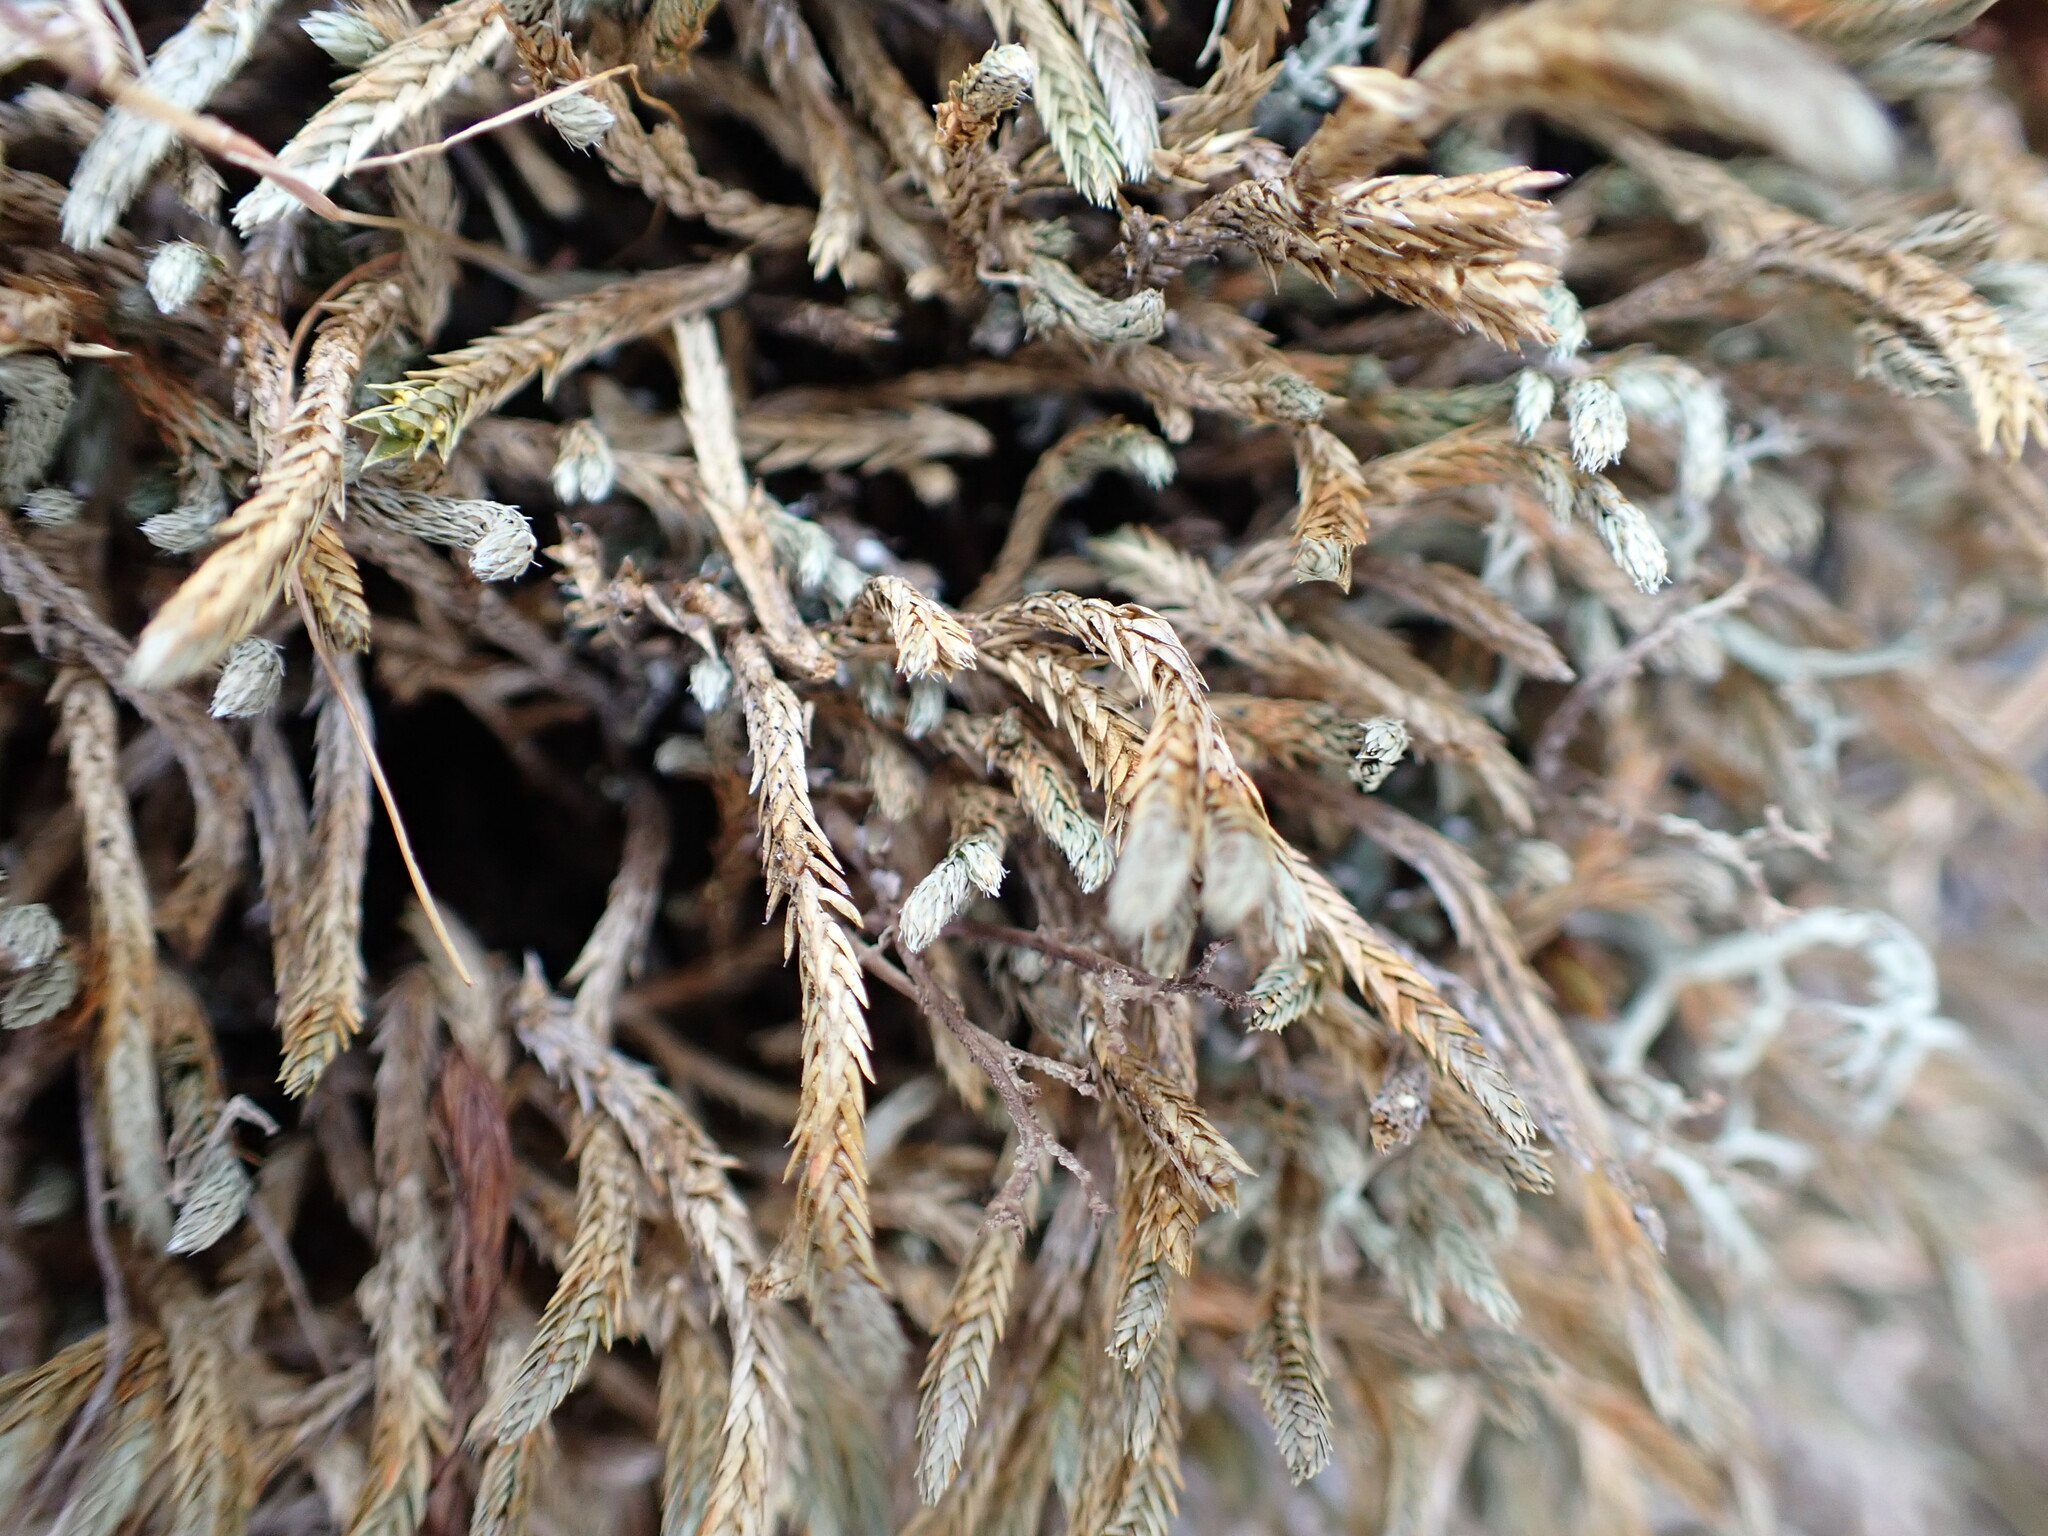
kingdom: Plantae
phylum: Tracheophyta
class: Lycopodiopsida
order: Selaginellales
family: Selaginellaceae
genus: Selaginella
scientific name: Selaginella wallacei
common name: Wallace's selaginella
